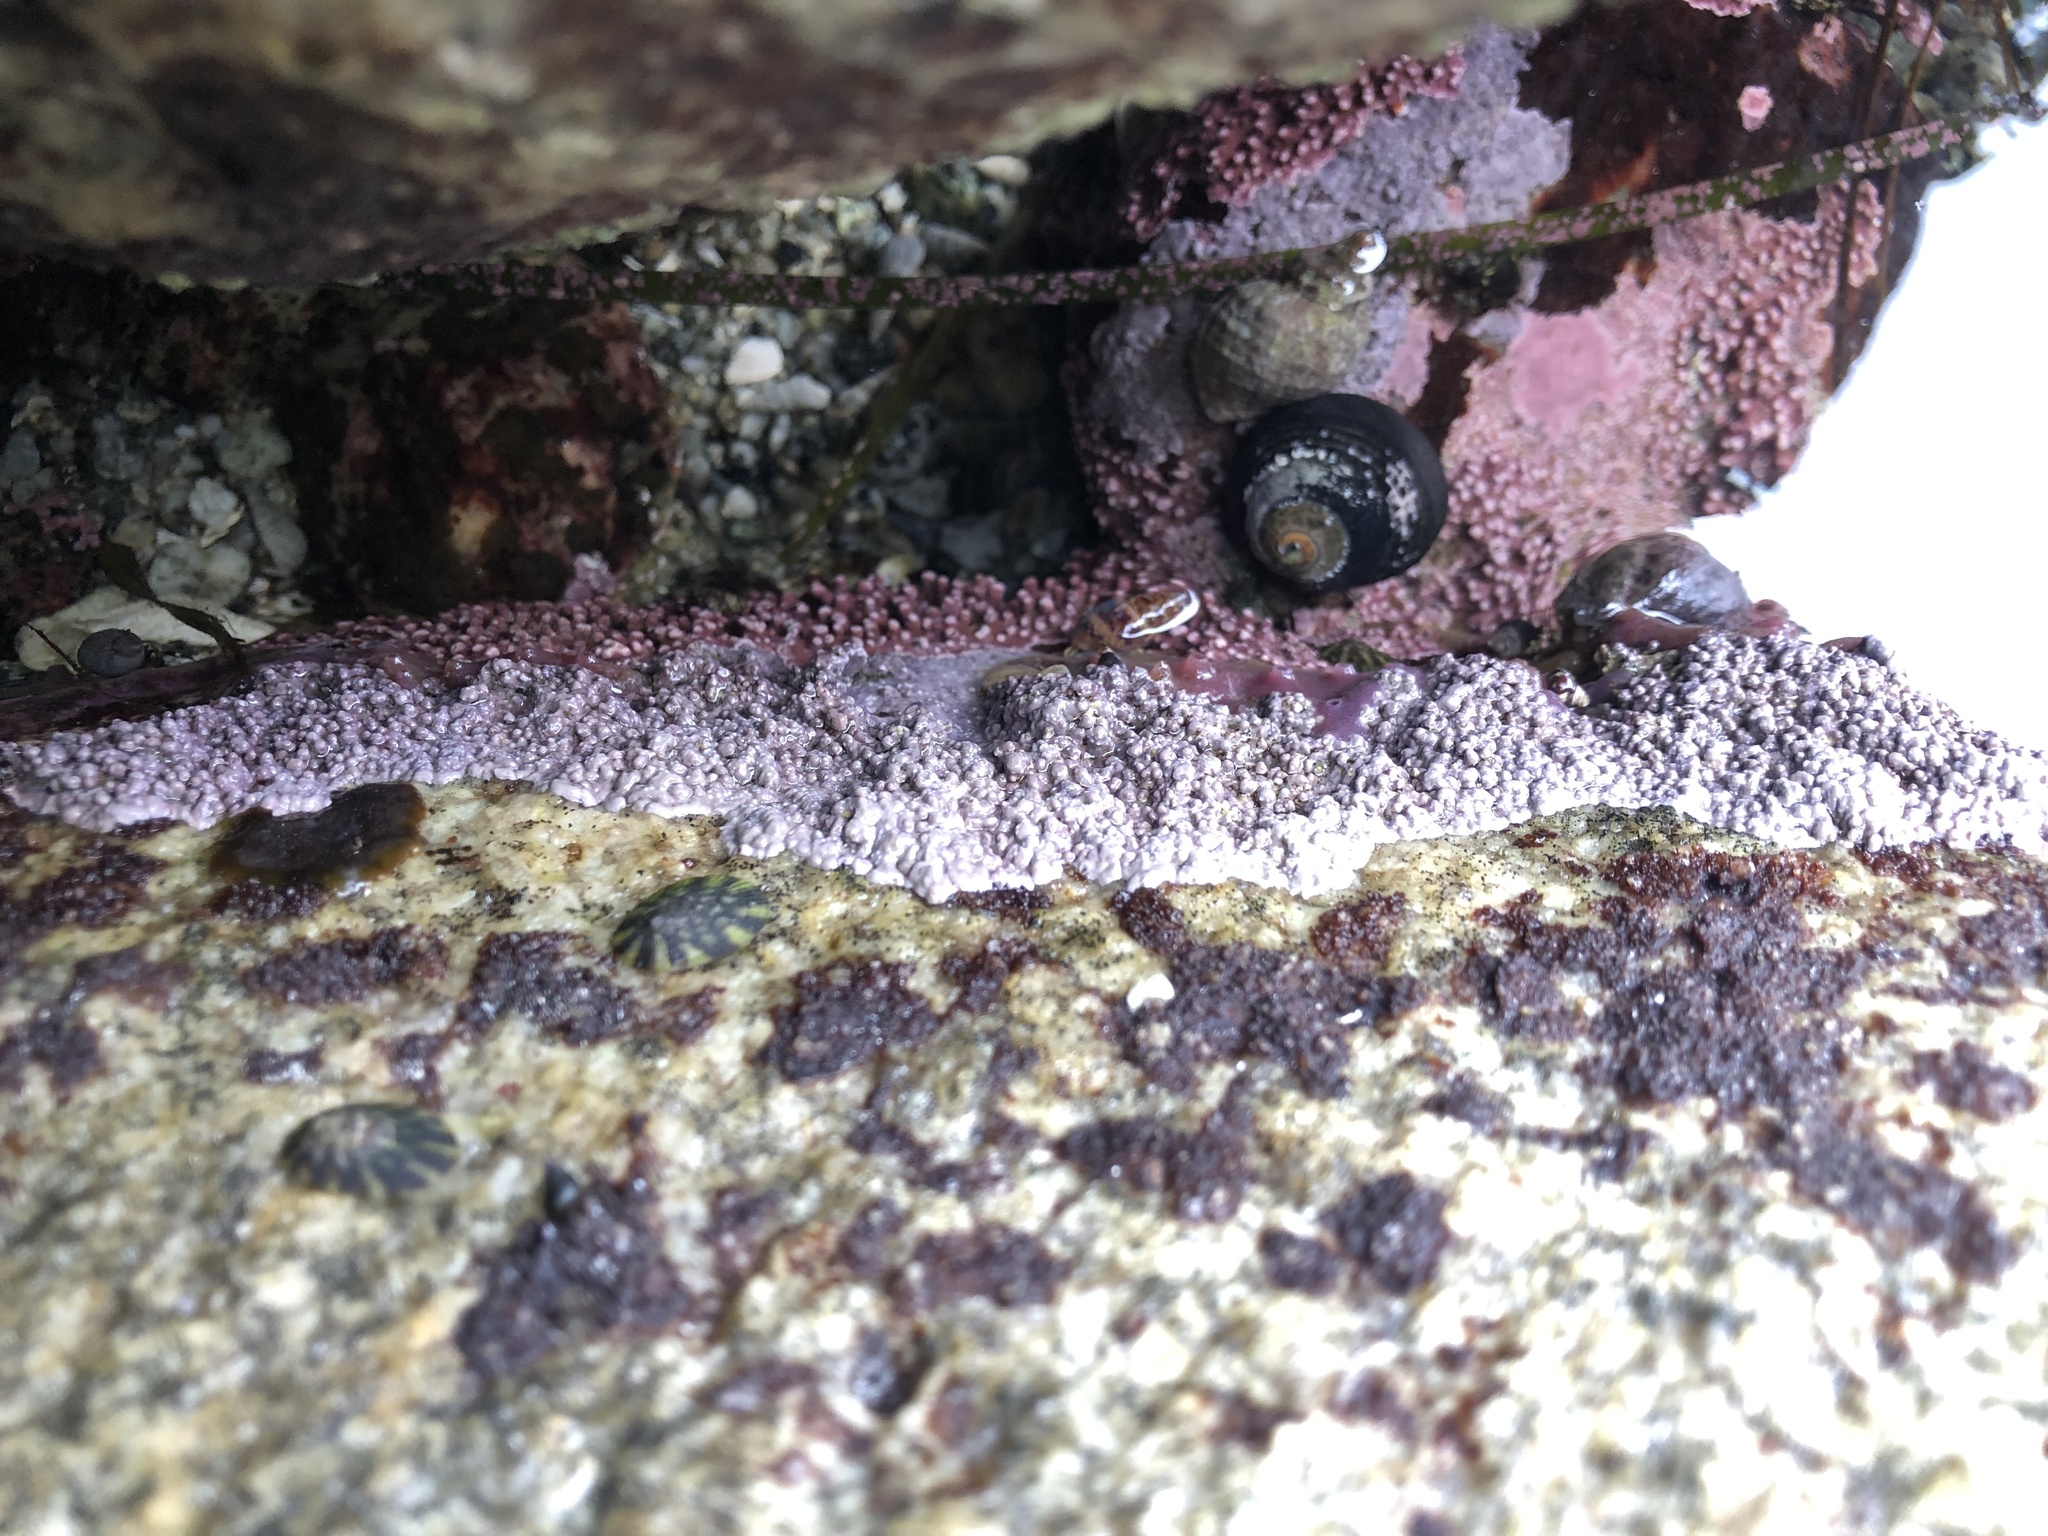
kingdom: Plantae
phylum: Rhodophyta
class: Florideophyceae
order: Corallinales
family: Corallinaceae
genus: Chamberlainium
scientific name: Chamberlainium tumidum
